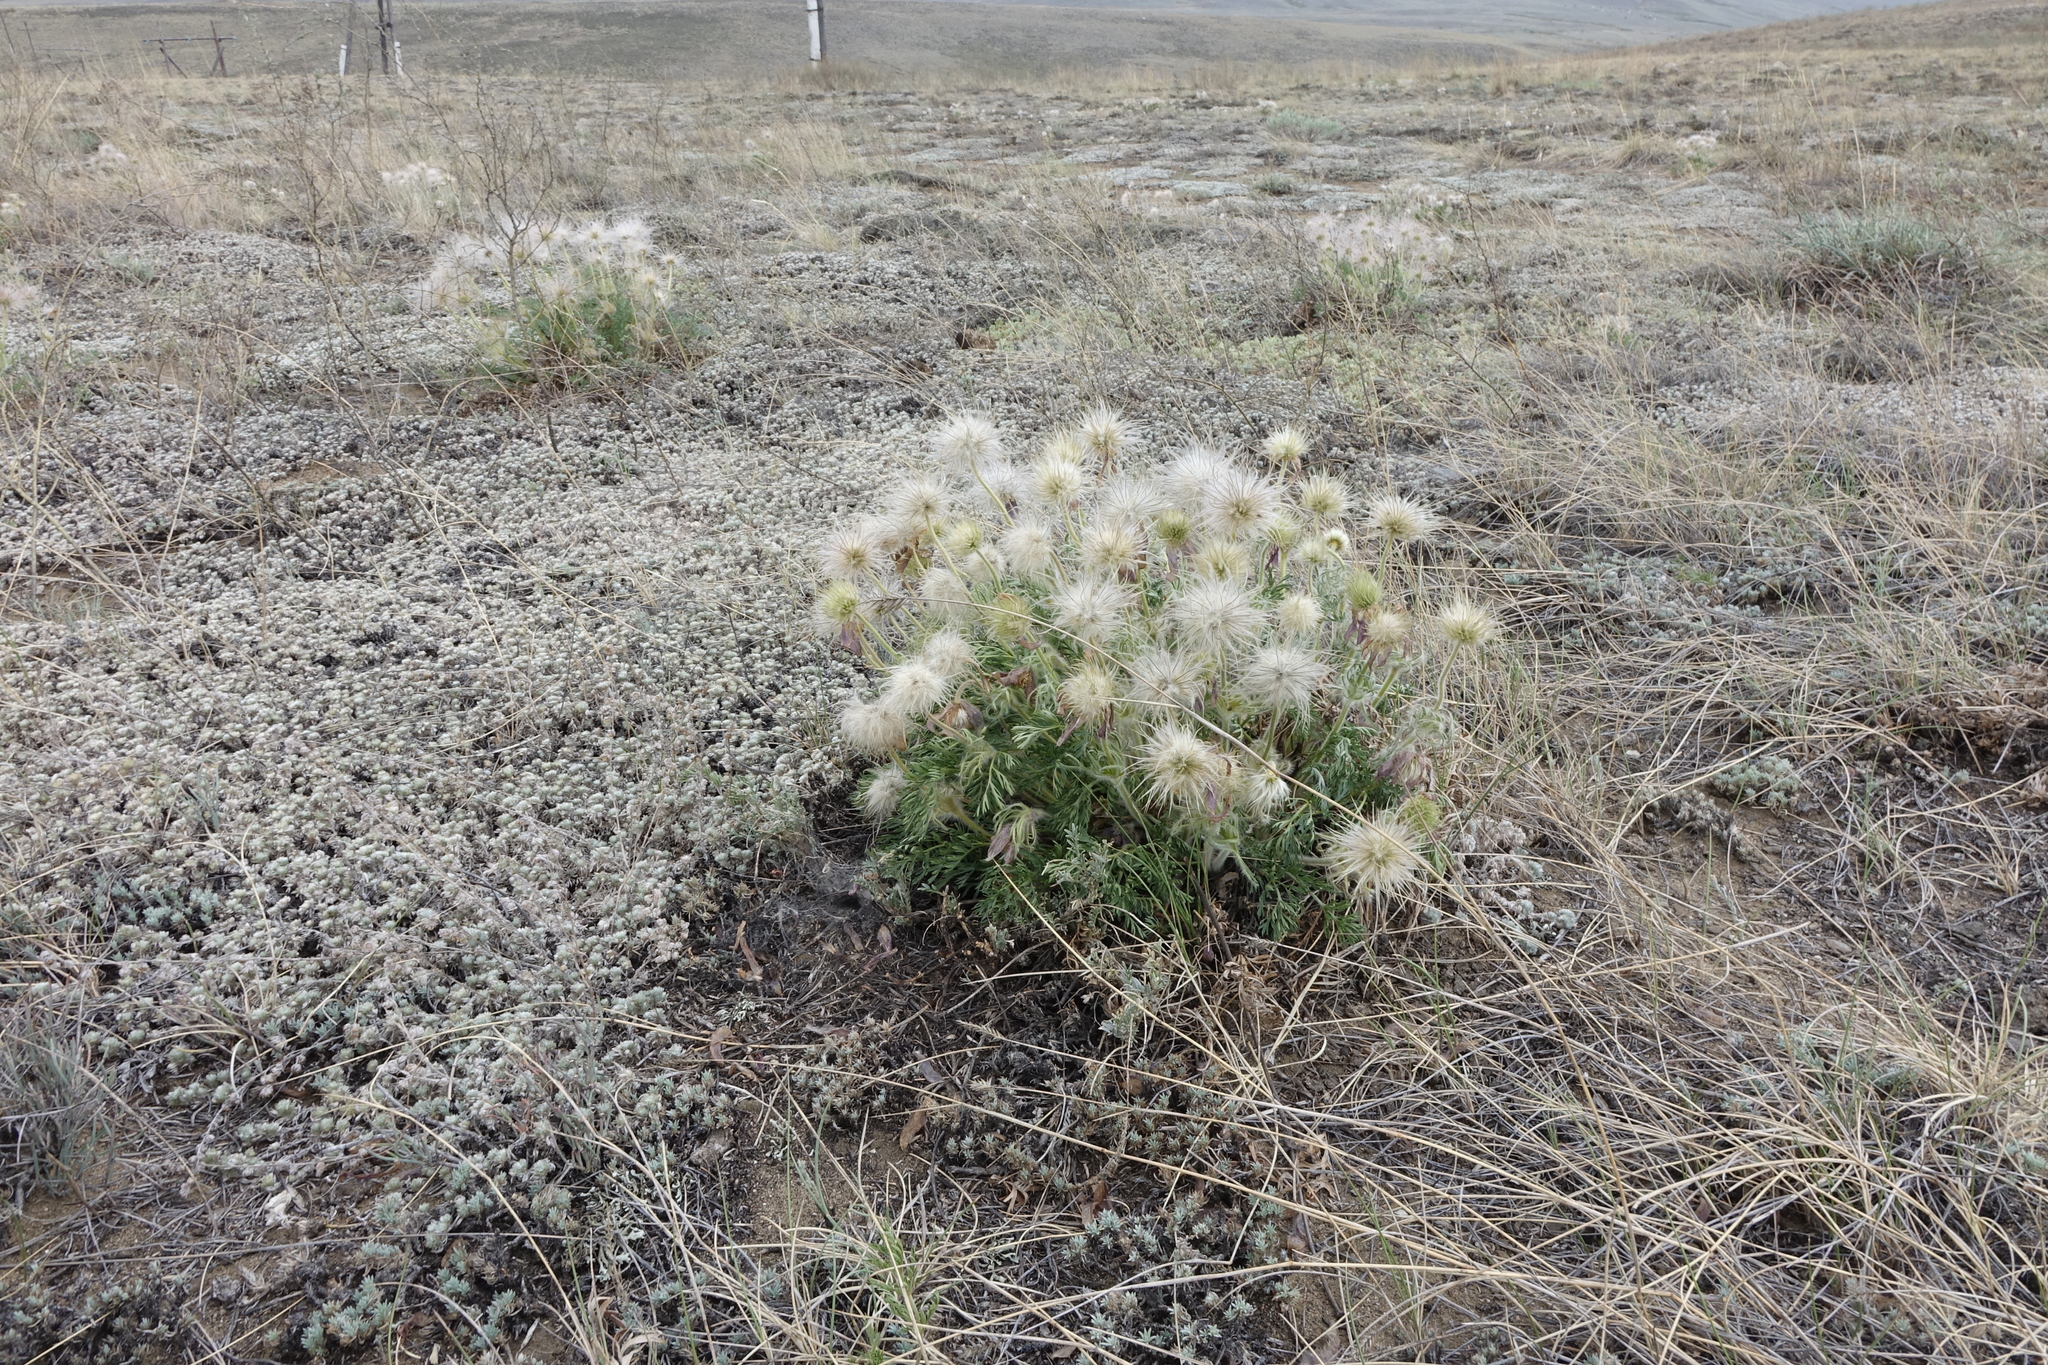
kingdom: Plantae
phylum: Tracheophyta
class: Magnoliopsida
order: Ranunculales
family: Ranunculaceae
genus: Pulsatilla
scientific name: Pulsatilla turczaninovii
